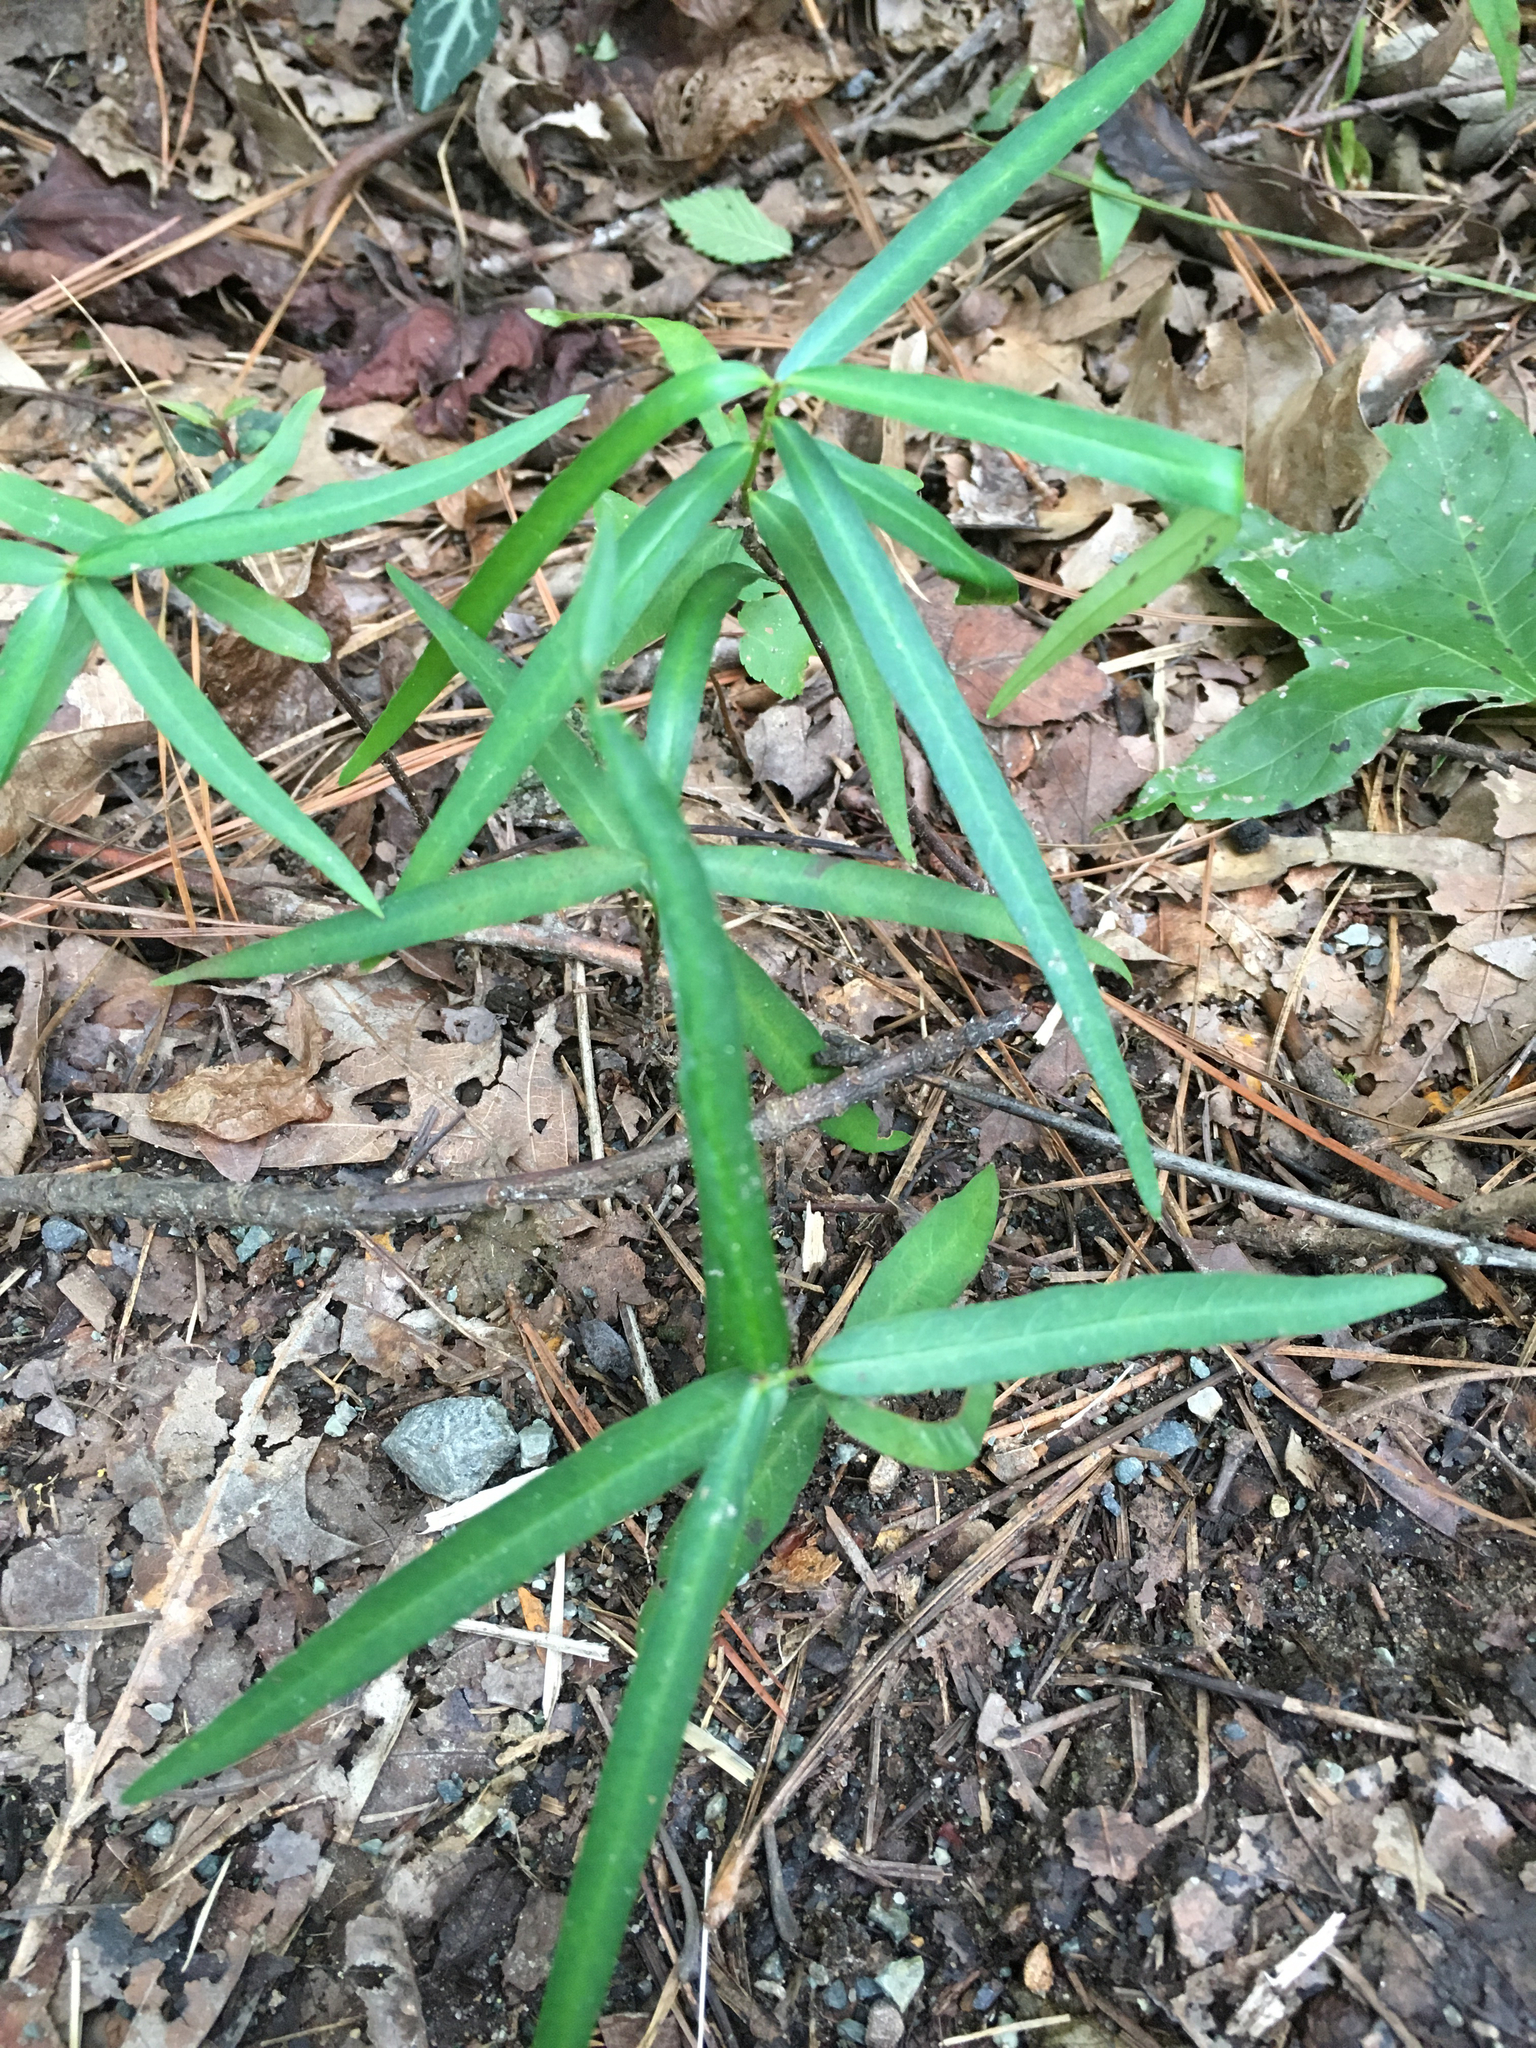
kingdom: Plantae
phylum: Tracheophyta
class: Magnoliopsida
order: Gentianales
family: Apocynaceae
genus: Thyrsanthella
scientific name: Thyrsanthella difformis
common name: Climbing dogbane
